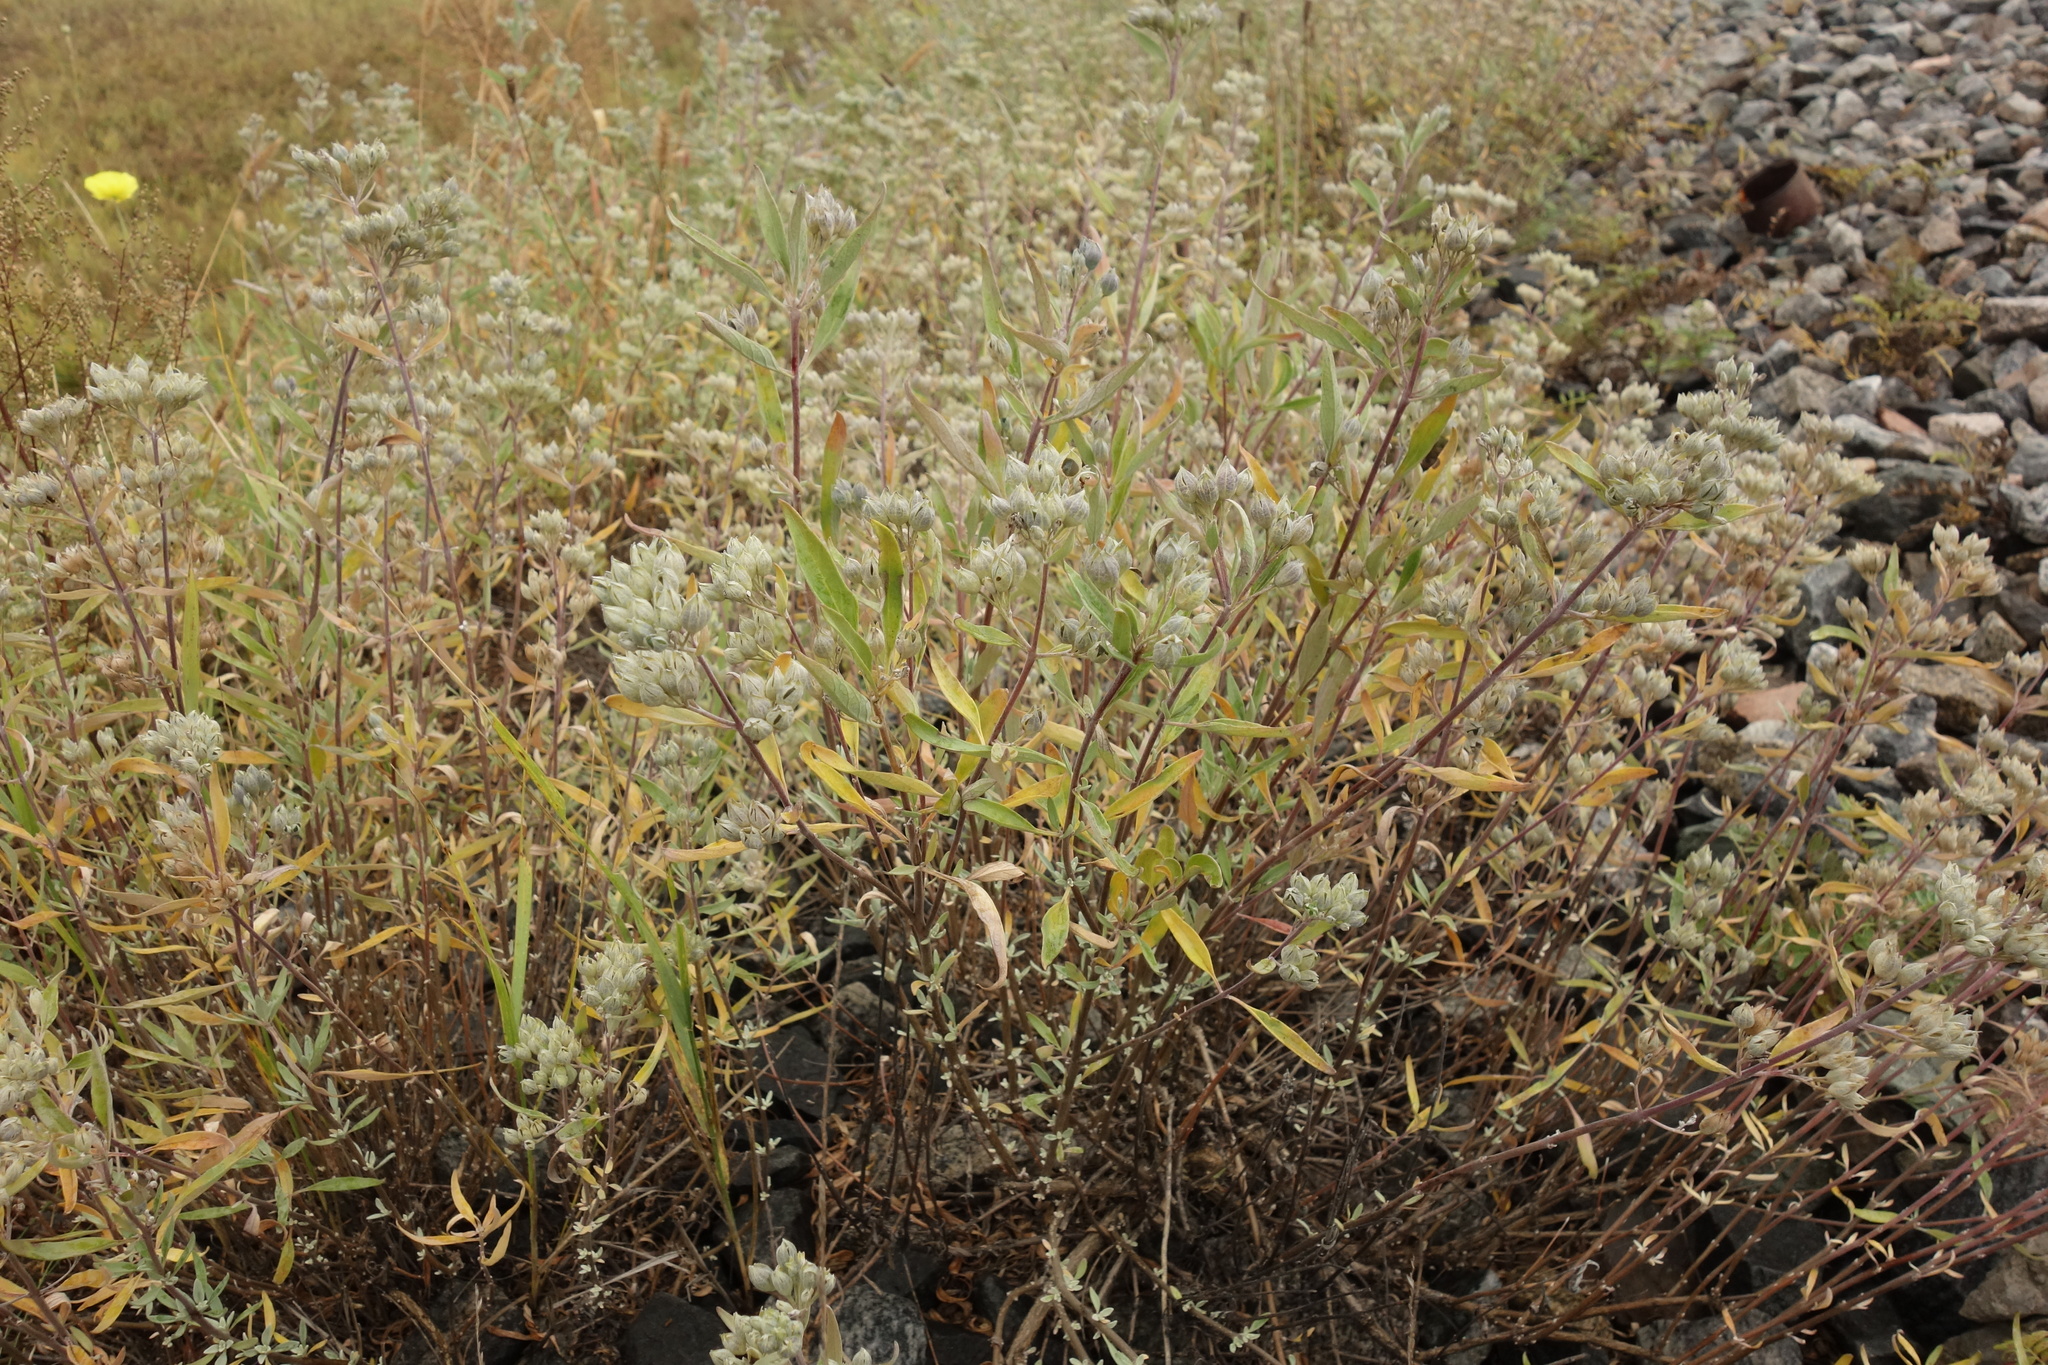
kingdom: Plantae
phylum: Tracheophyta
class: Magnoliopsida
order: Lamiales
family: Lamiaceae
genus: Caryopteris
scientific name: Caryopteris mongholica
